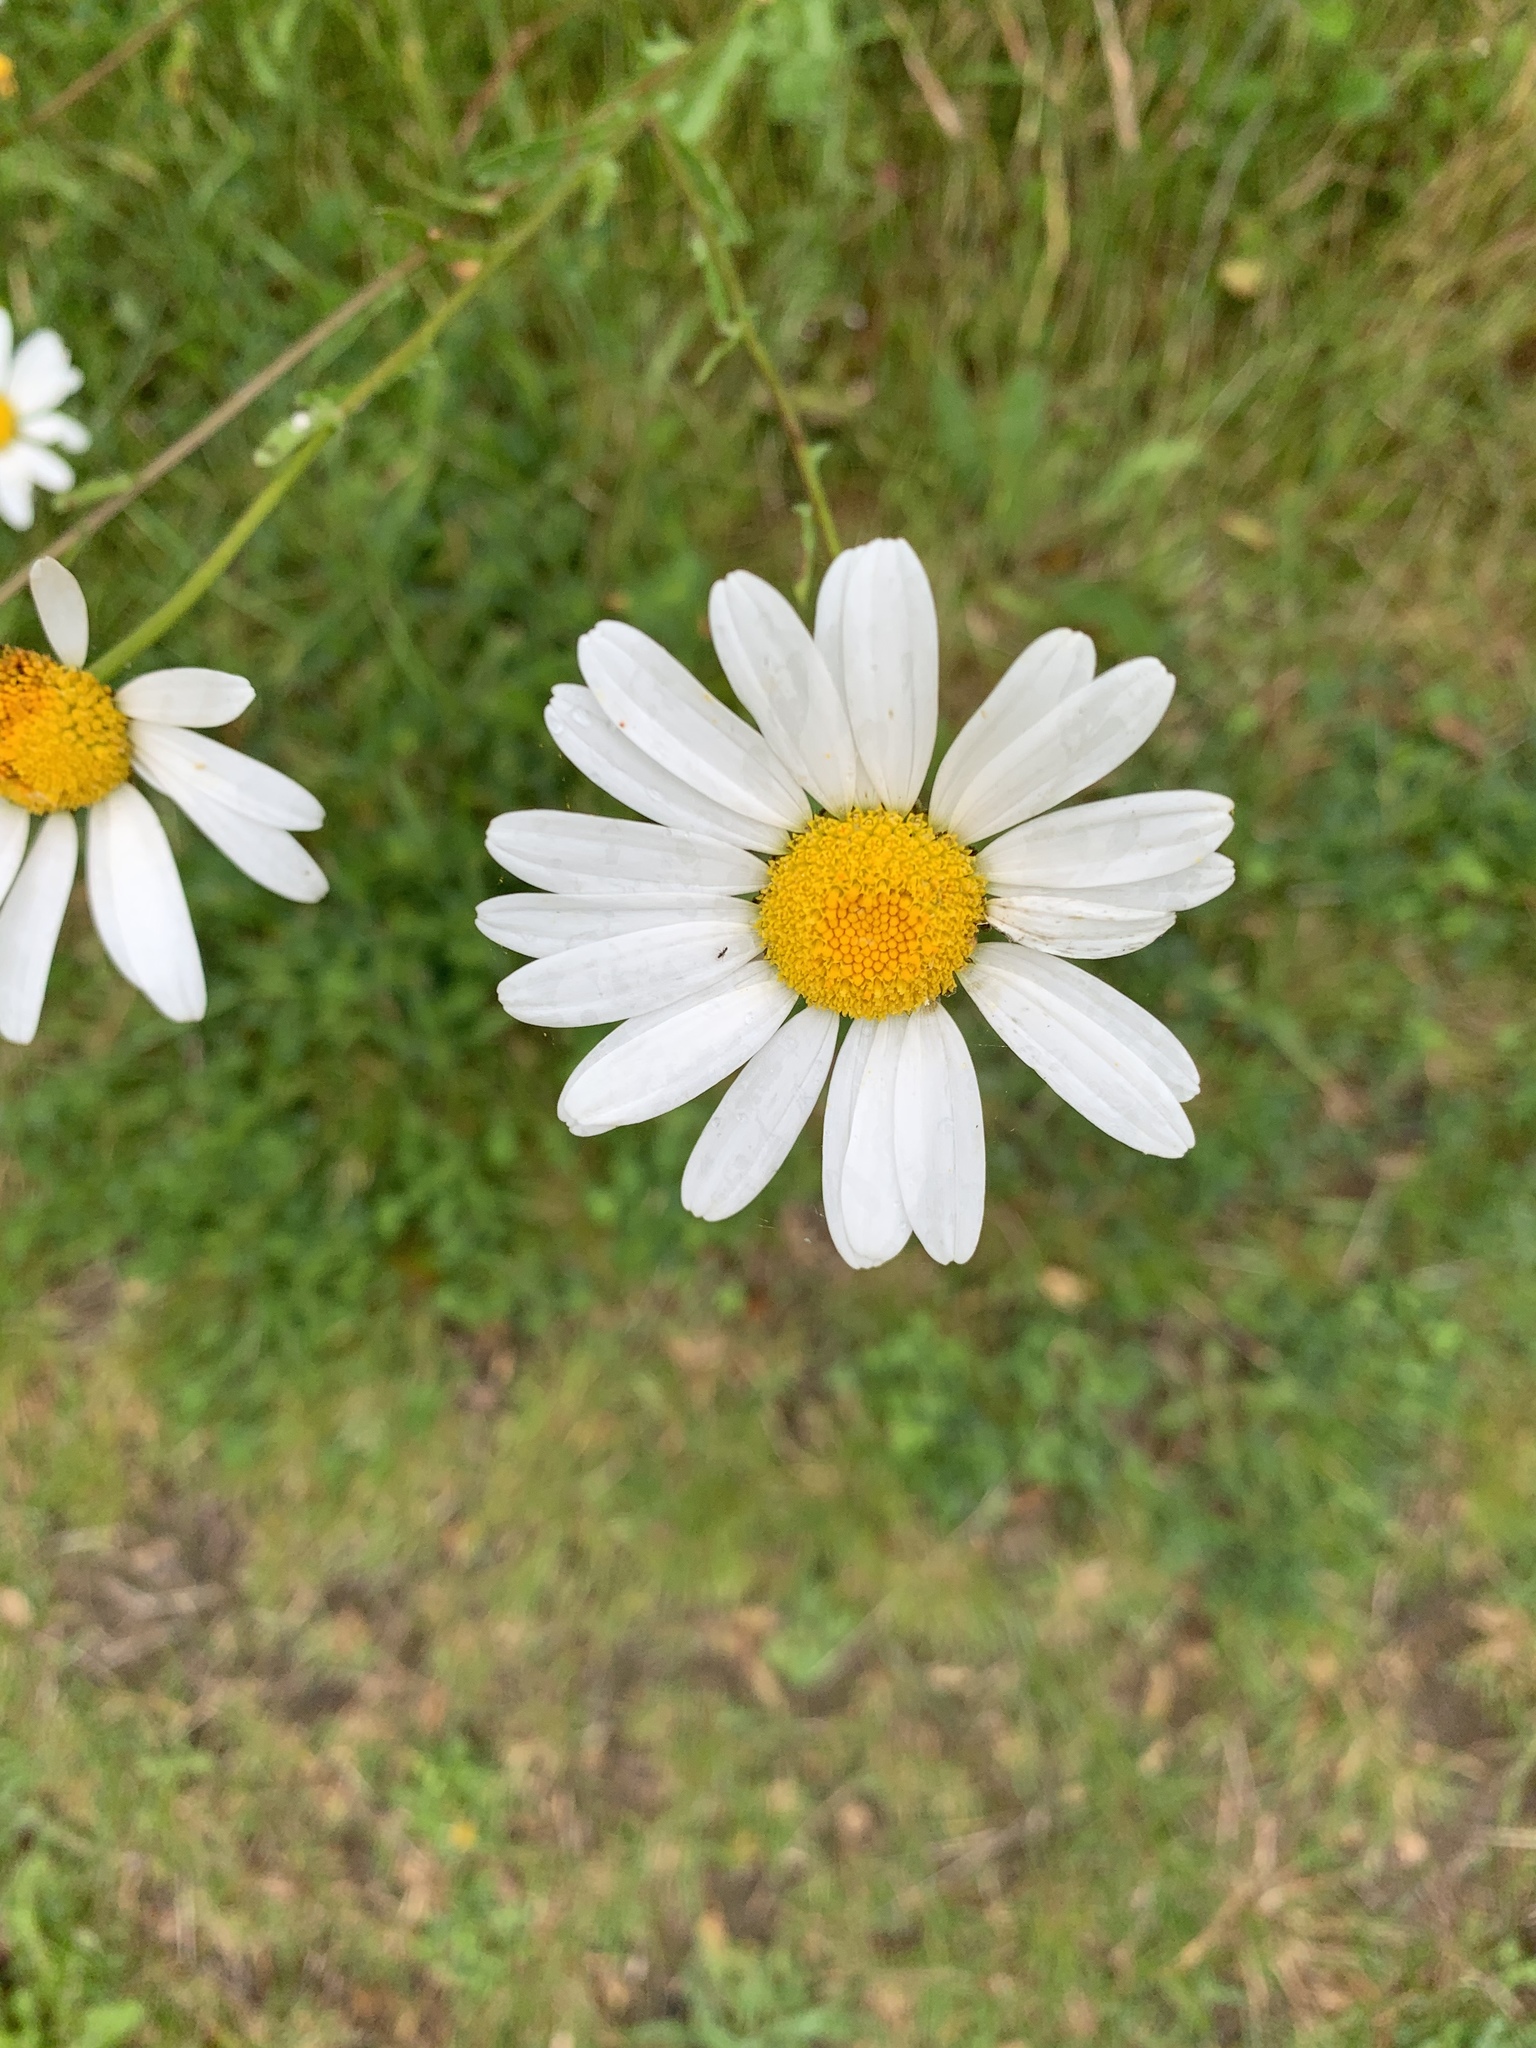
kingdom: Plantae
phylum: Tracheophyta
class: Magnoliopsida
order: Asterales
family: Asteraceae
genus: Leucanthemum
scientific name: Leucanthemum vulgare
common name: Oxeye daisy
